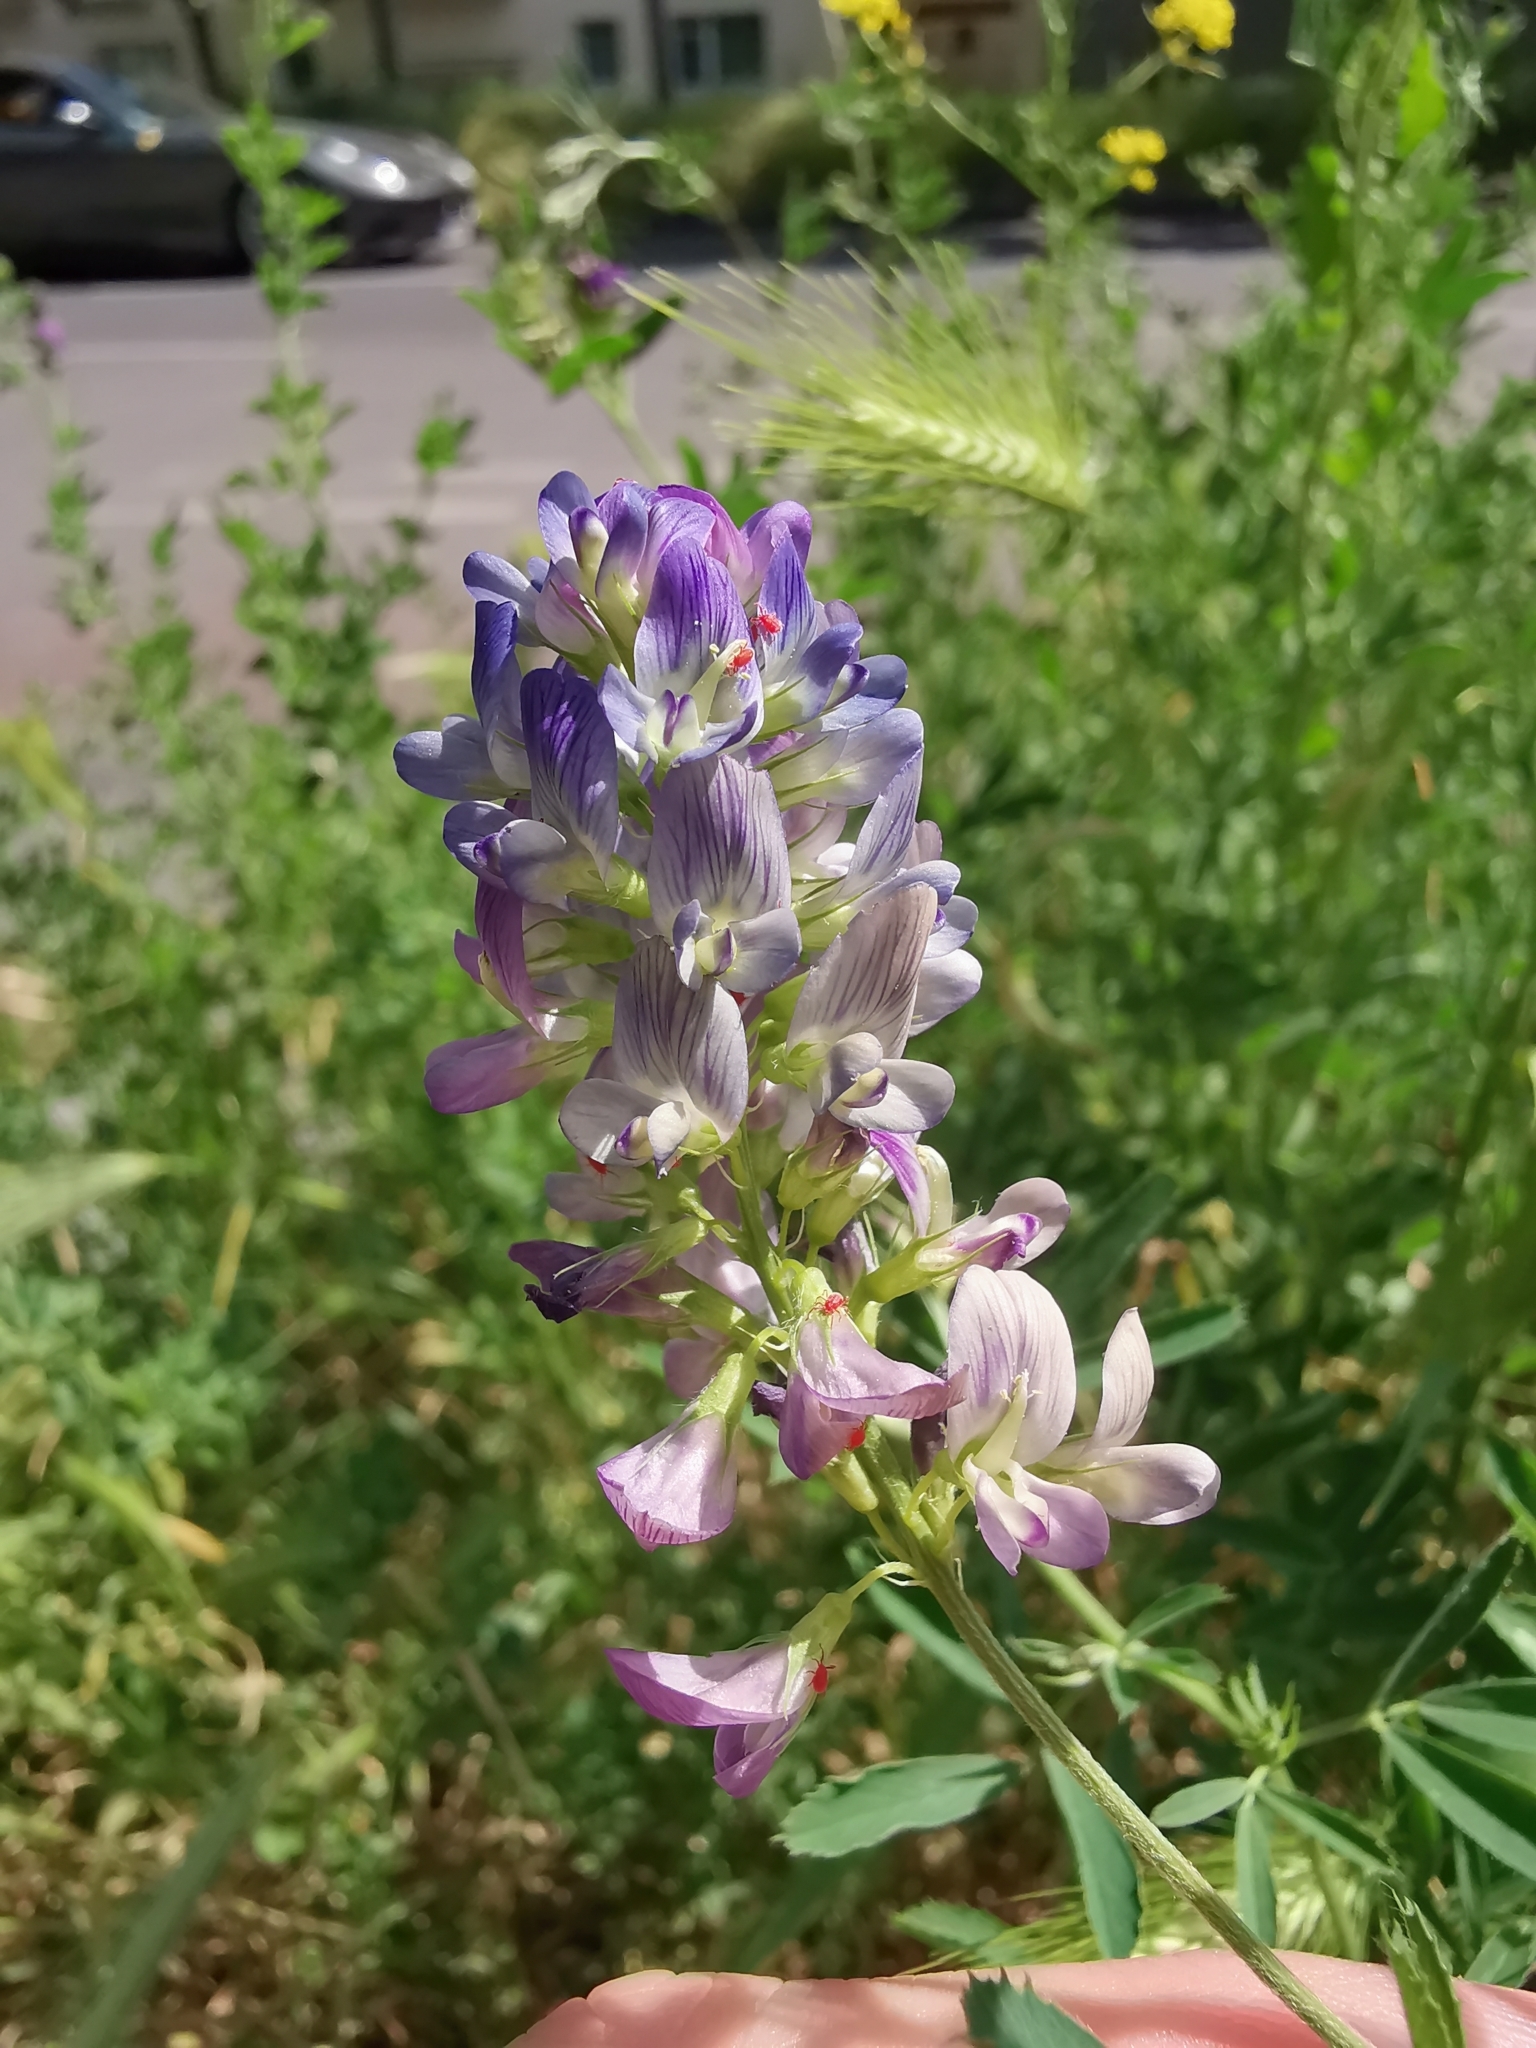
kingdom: Plantae
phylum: Tracheophyta
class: Magnoliopsida
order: Fabales
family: Fabaceae
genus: Medicago
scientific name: Medicago varia
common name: Sand lucerne
